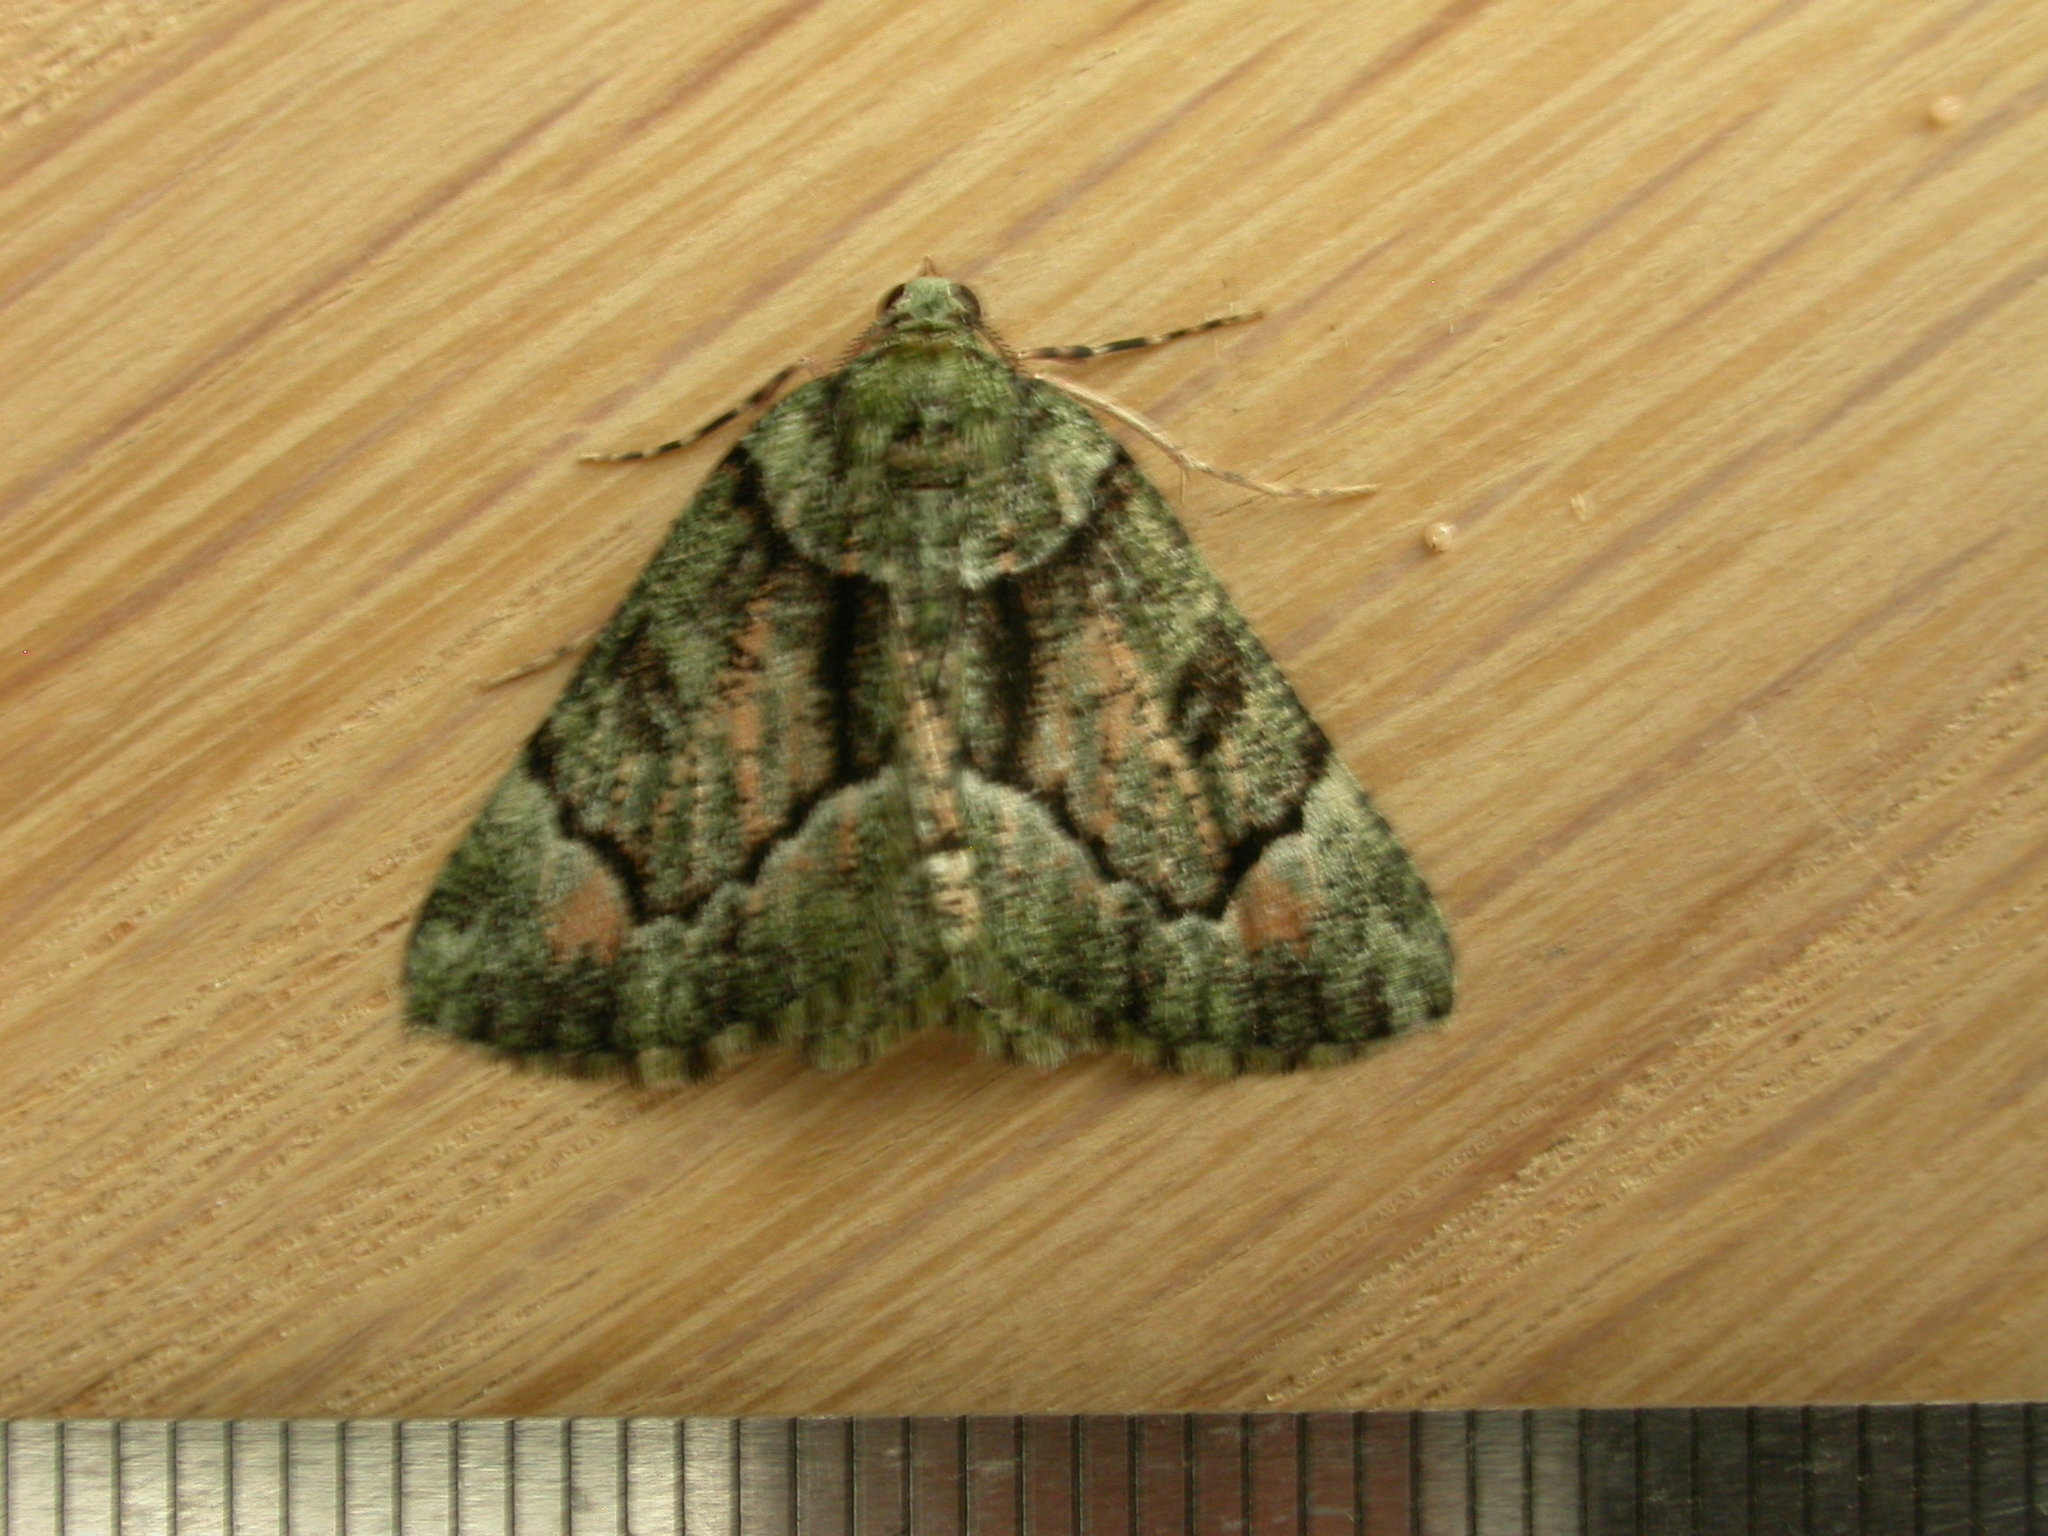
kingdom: Animalia
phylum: Arthropoda
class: Insecta
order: Lepidoptera
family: Geometridae
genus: Aeolochroma
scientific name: Aeolochroma metarhodata
